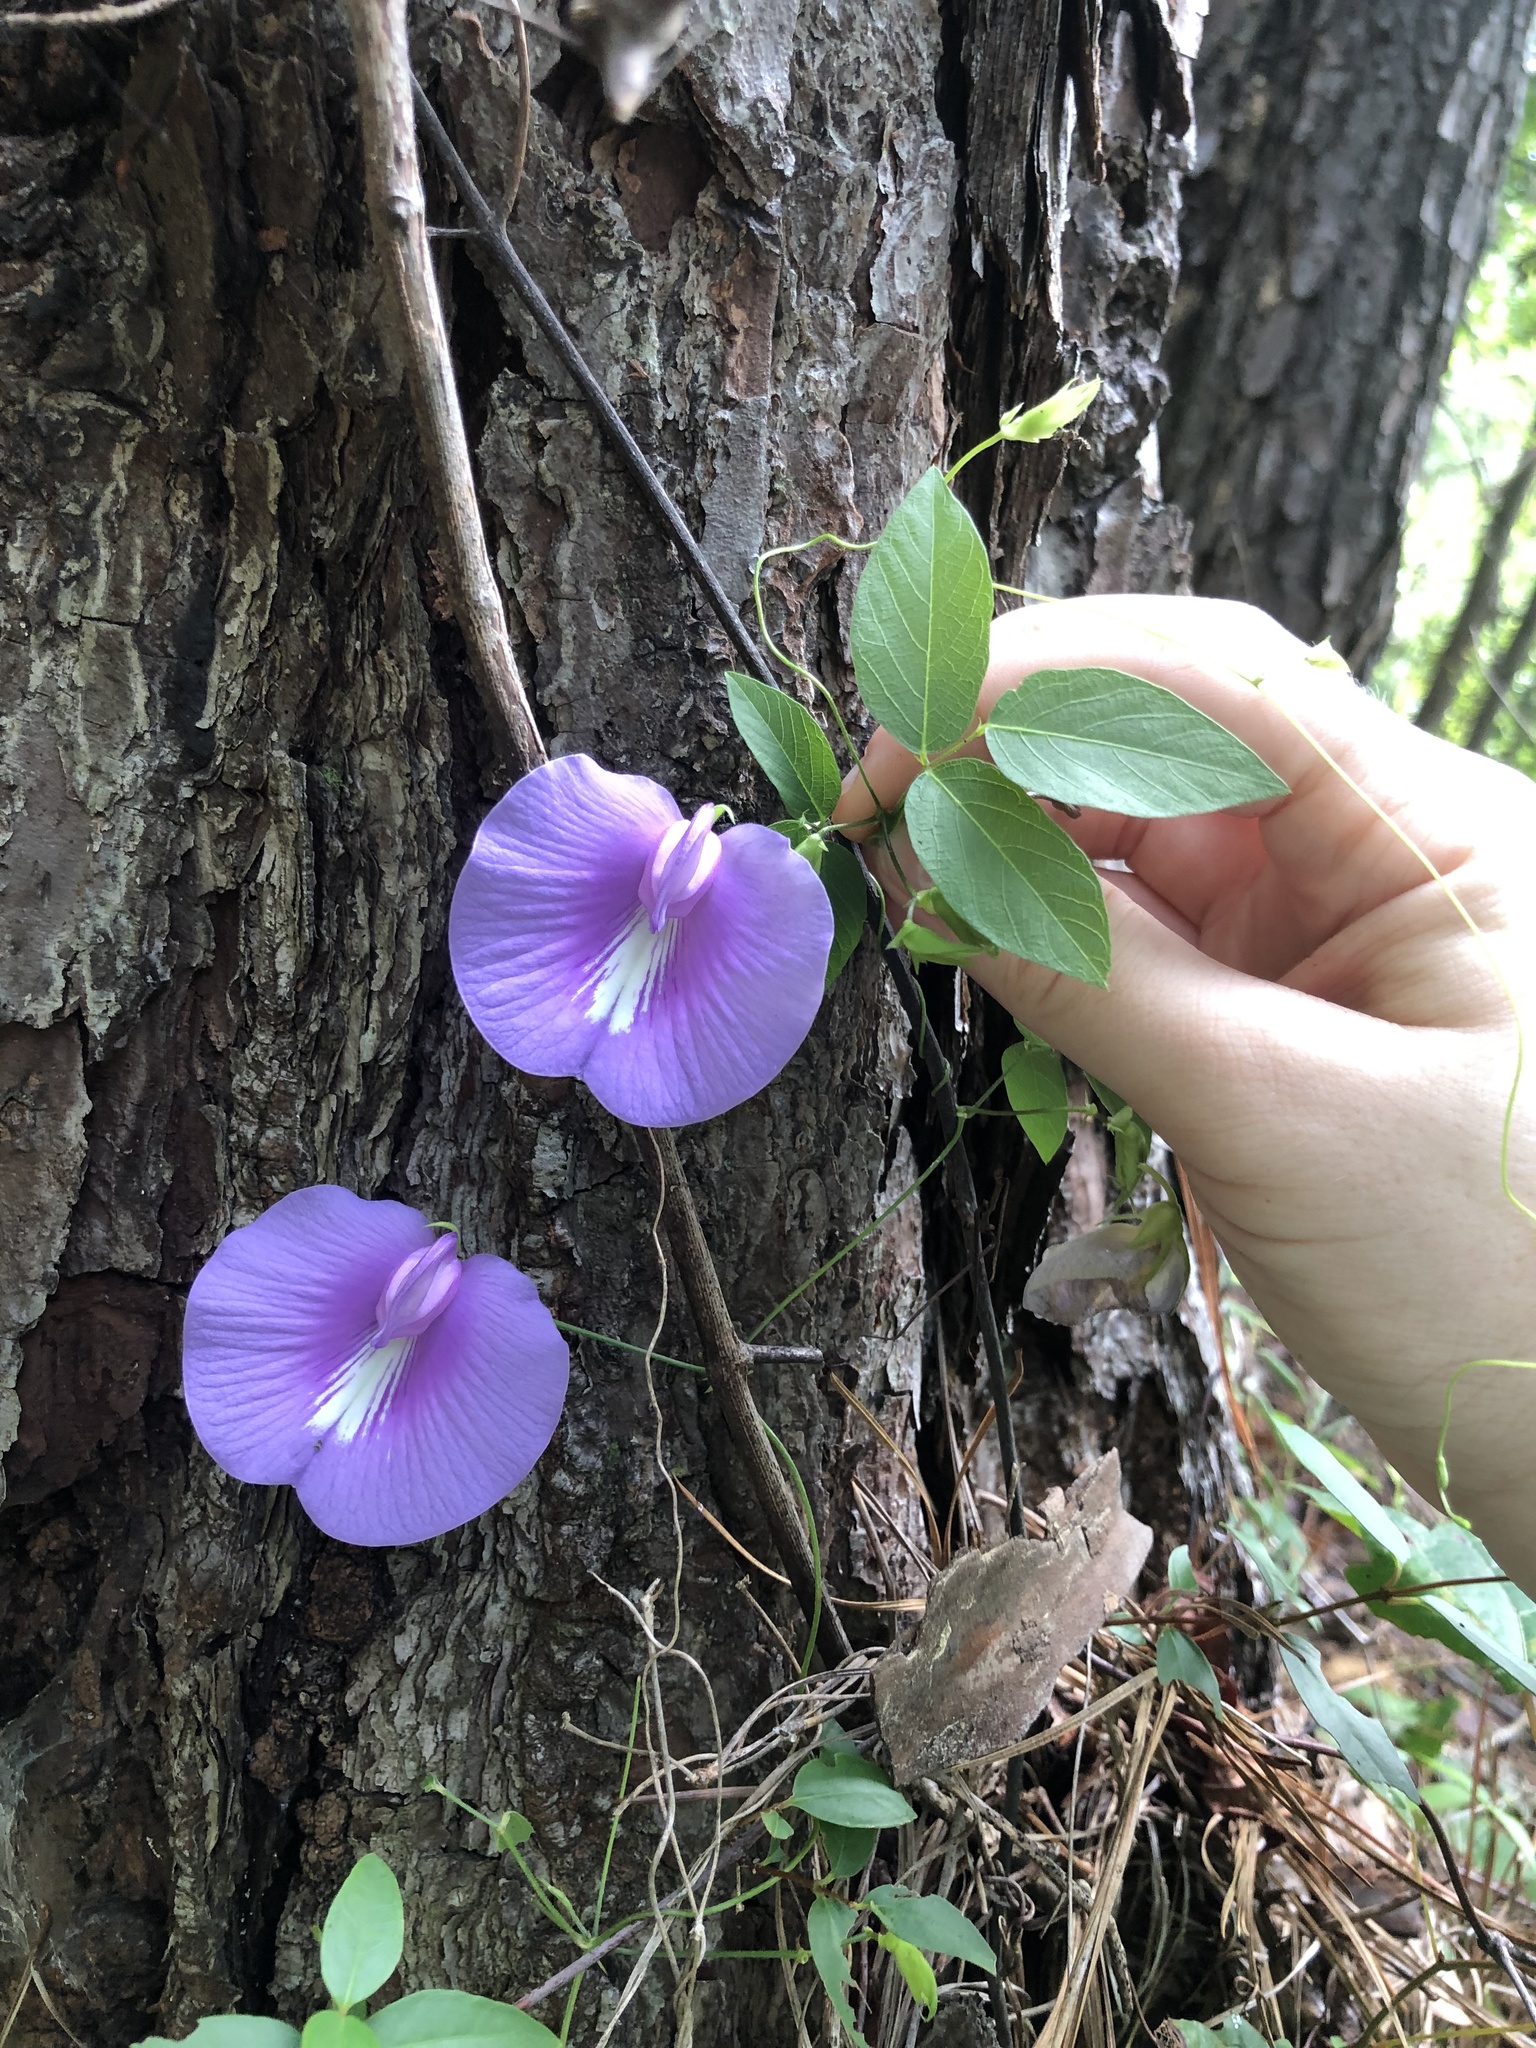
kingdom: Plantae
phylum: Tracheophyta
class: Magnoliopsida
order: Fabales
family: Fabaceae
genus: Centrosema
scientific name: Centrosema virginianum
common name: Butterfly-pea
